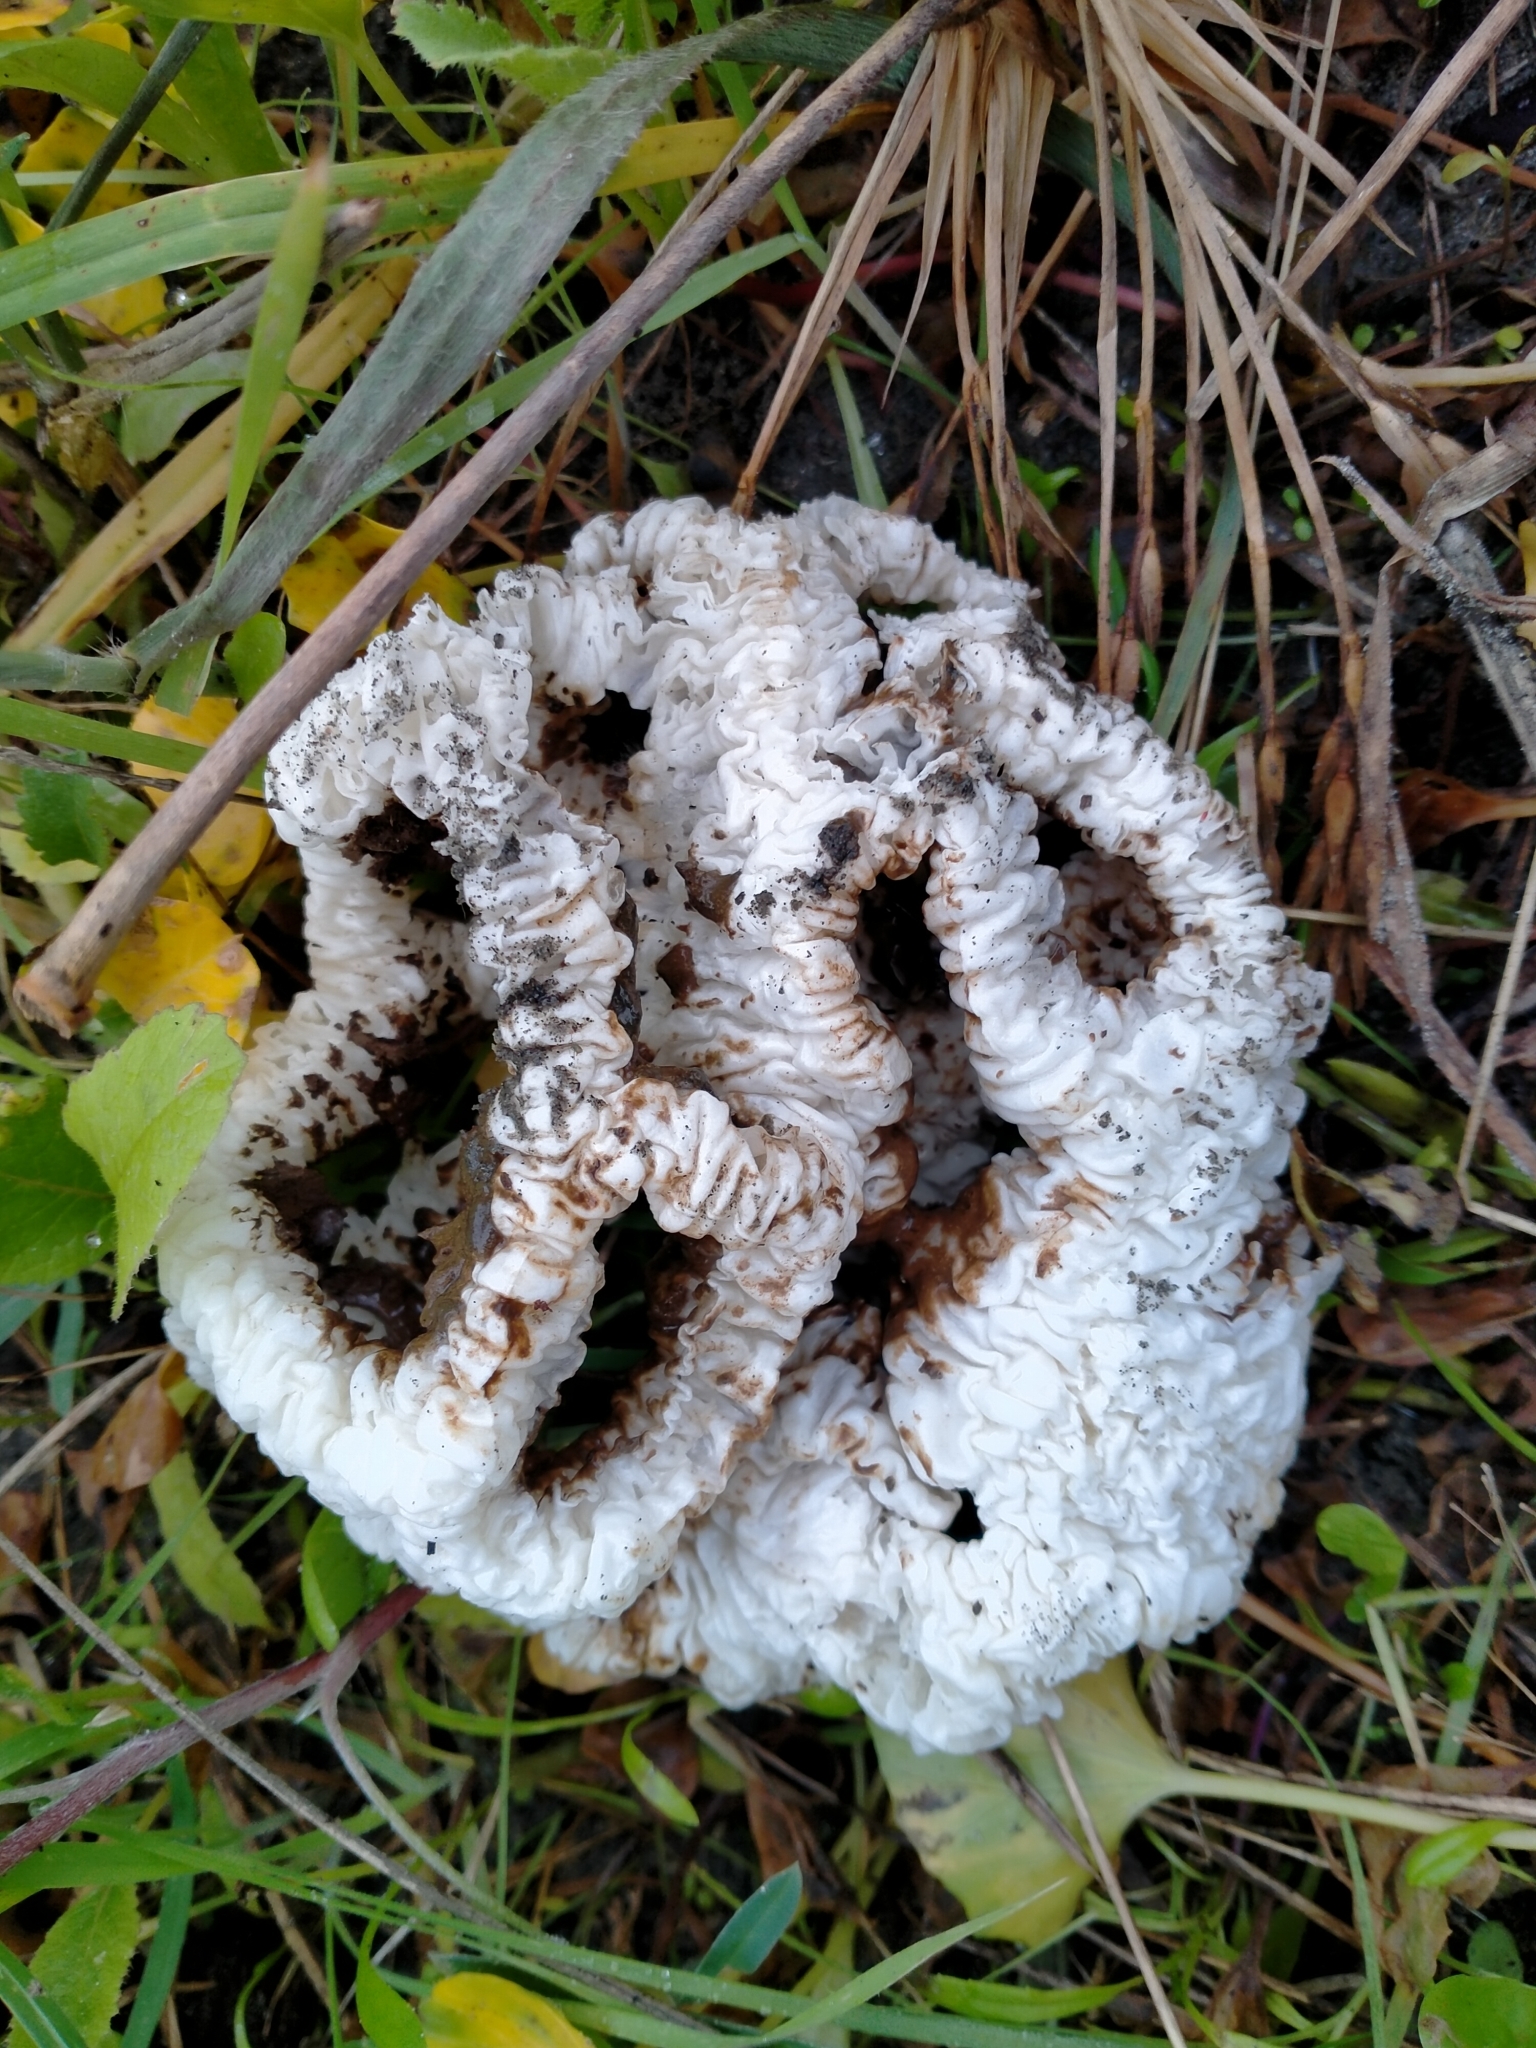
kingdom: Fungi
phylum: Basidiomycota
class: Agaricomycetes
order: Phallales
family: Phallaceae
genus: Ileodictyon
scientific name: Ileodictyon cibarium
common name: Basket fungus
